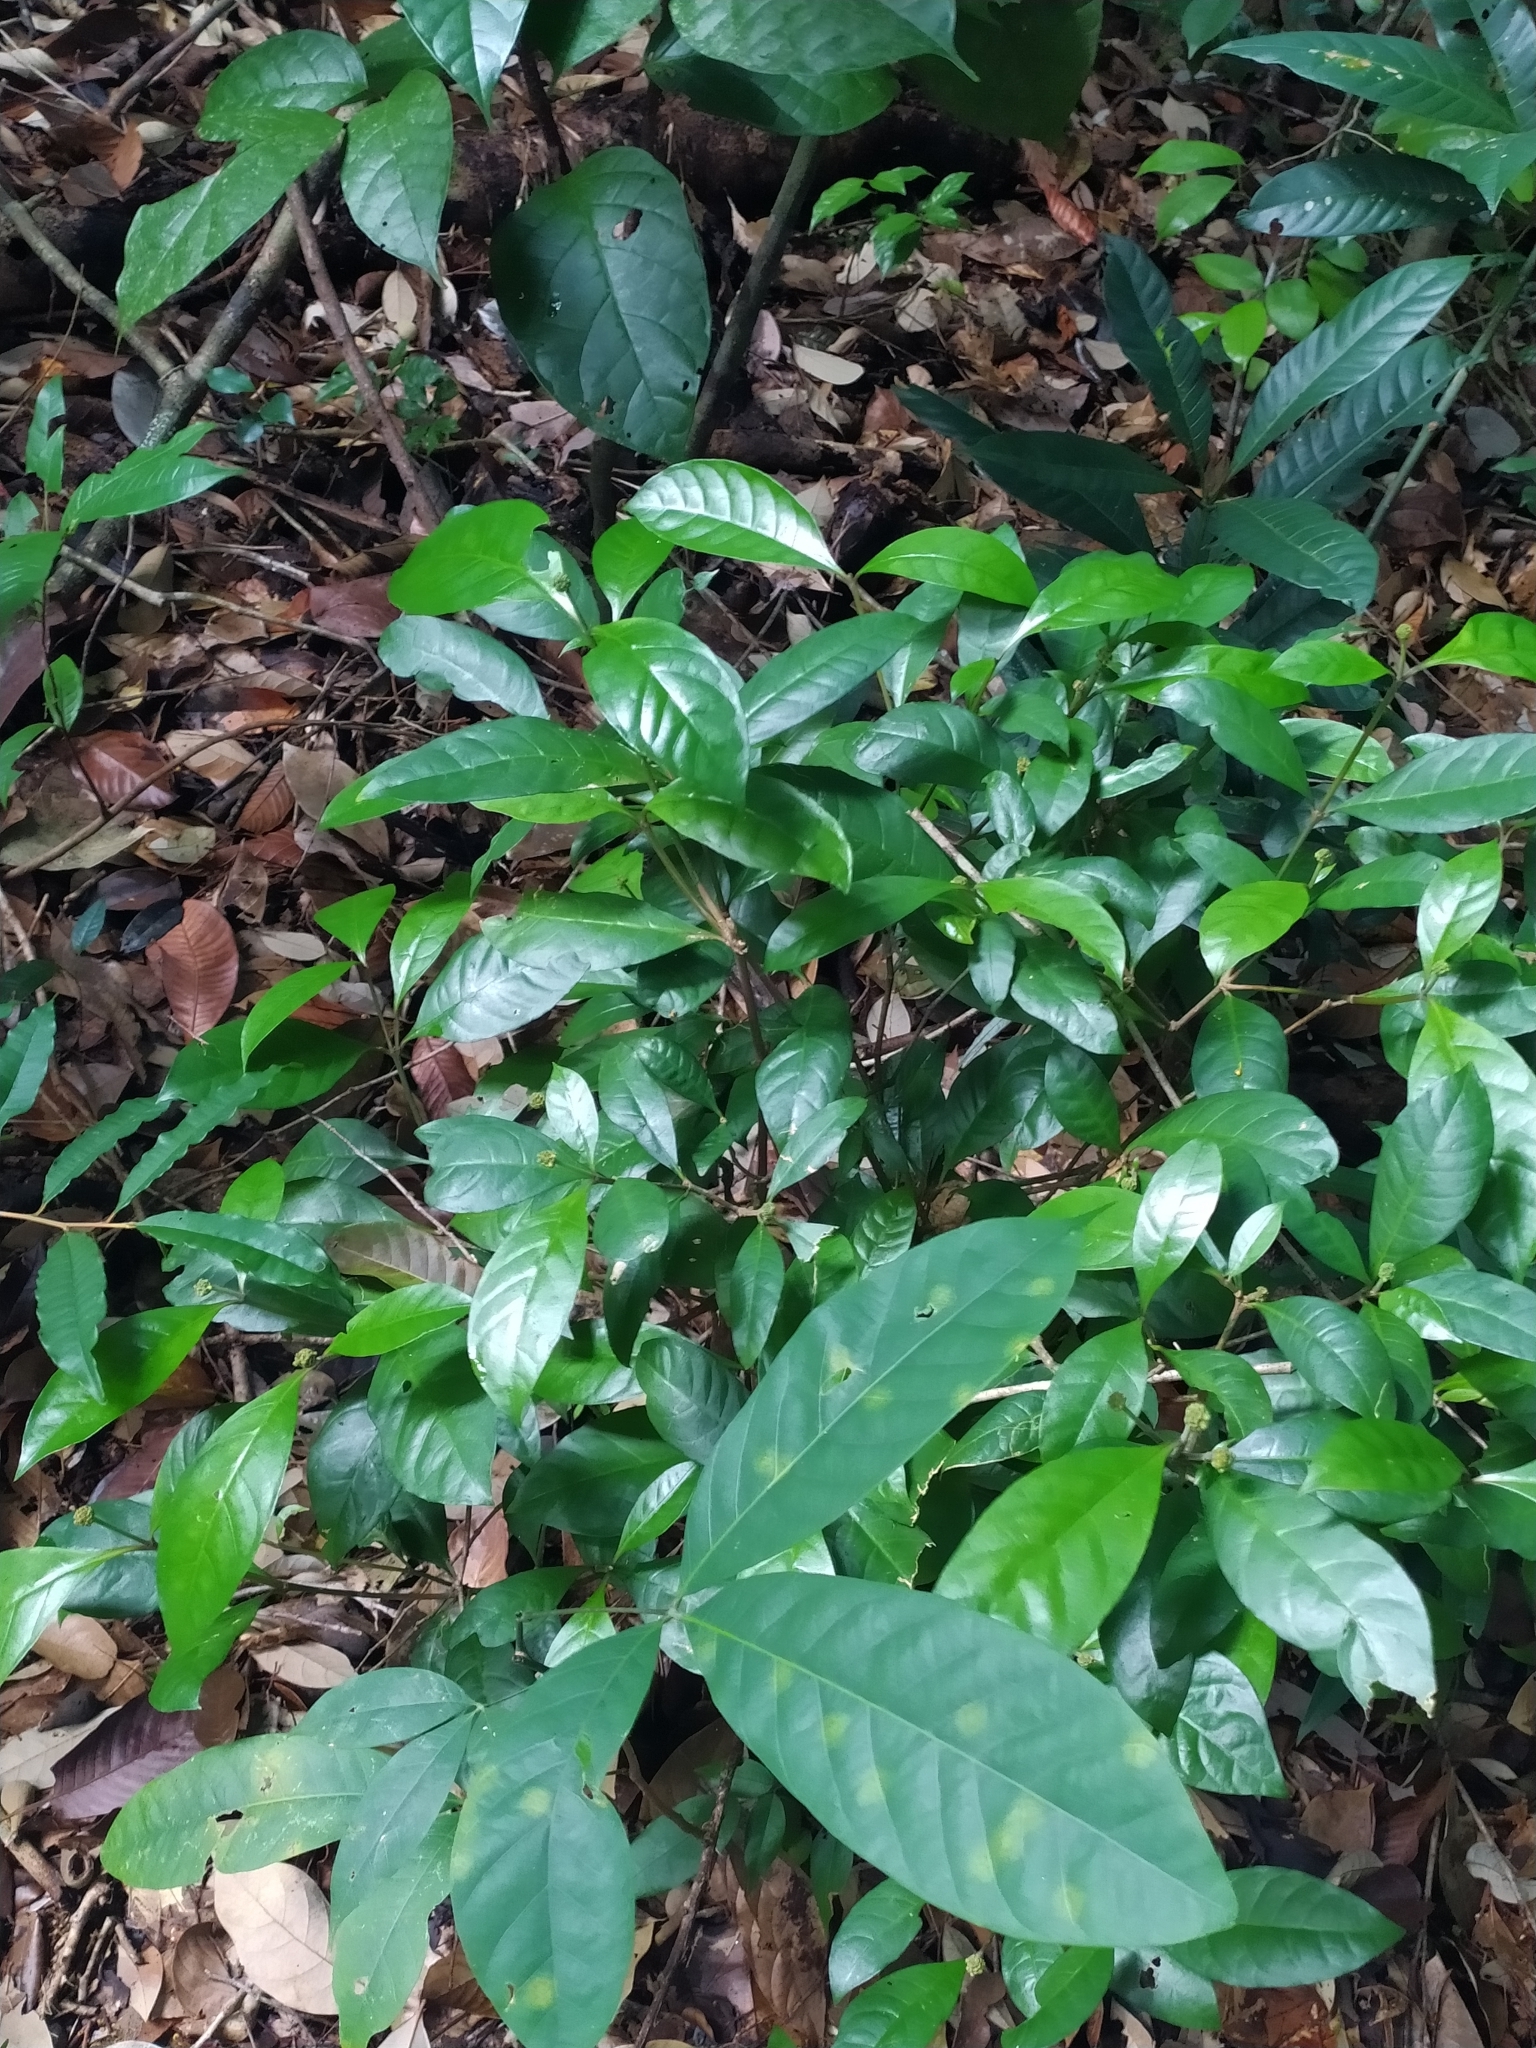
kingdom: Plantae
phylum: Tracheophyta
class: Magnoliopsida
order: Gentianales
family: Rubiaceae
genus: Eumachia
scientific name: Eumachia guianensis
